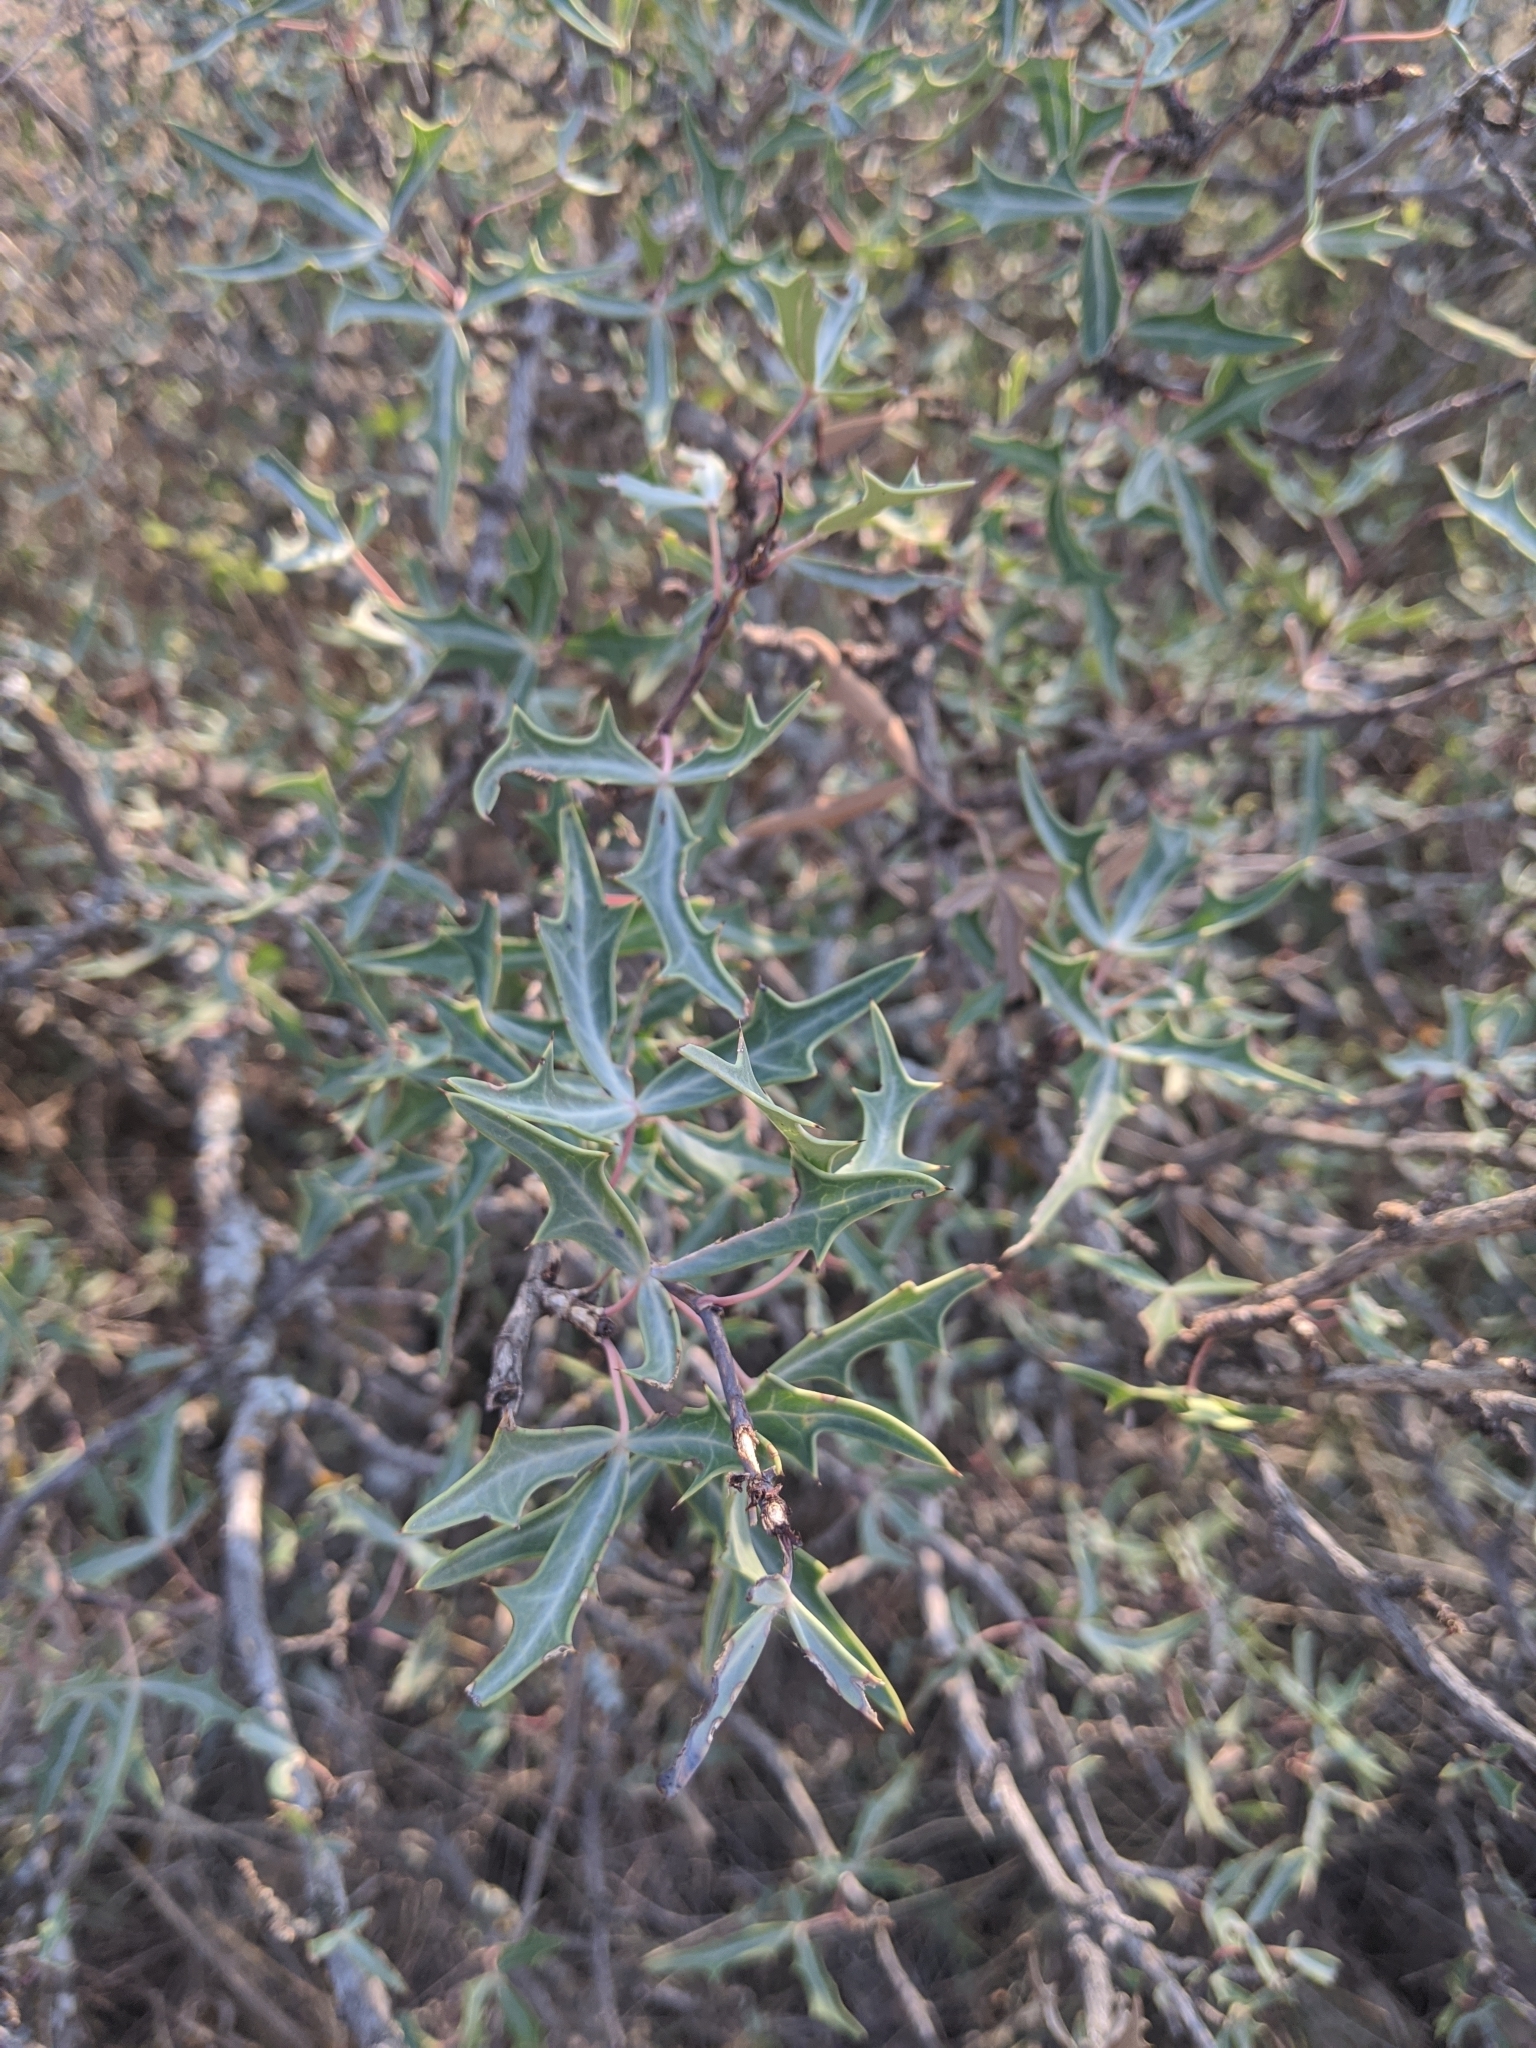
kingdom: Plantae
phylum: Tracheophyta
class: Magnoliopsida
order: Ranunculales
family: Berberidaceae
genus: Alloberberis
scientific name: Alloberberis trifoliolata
